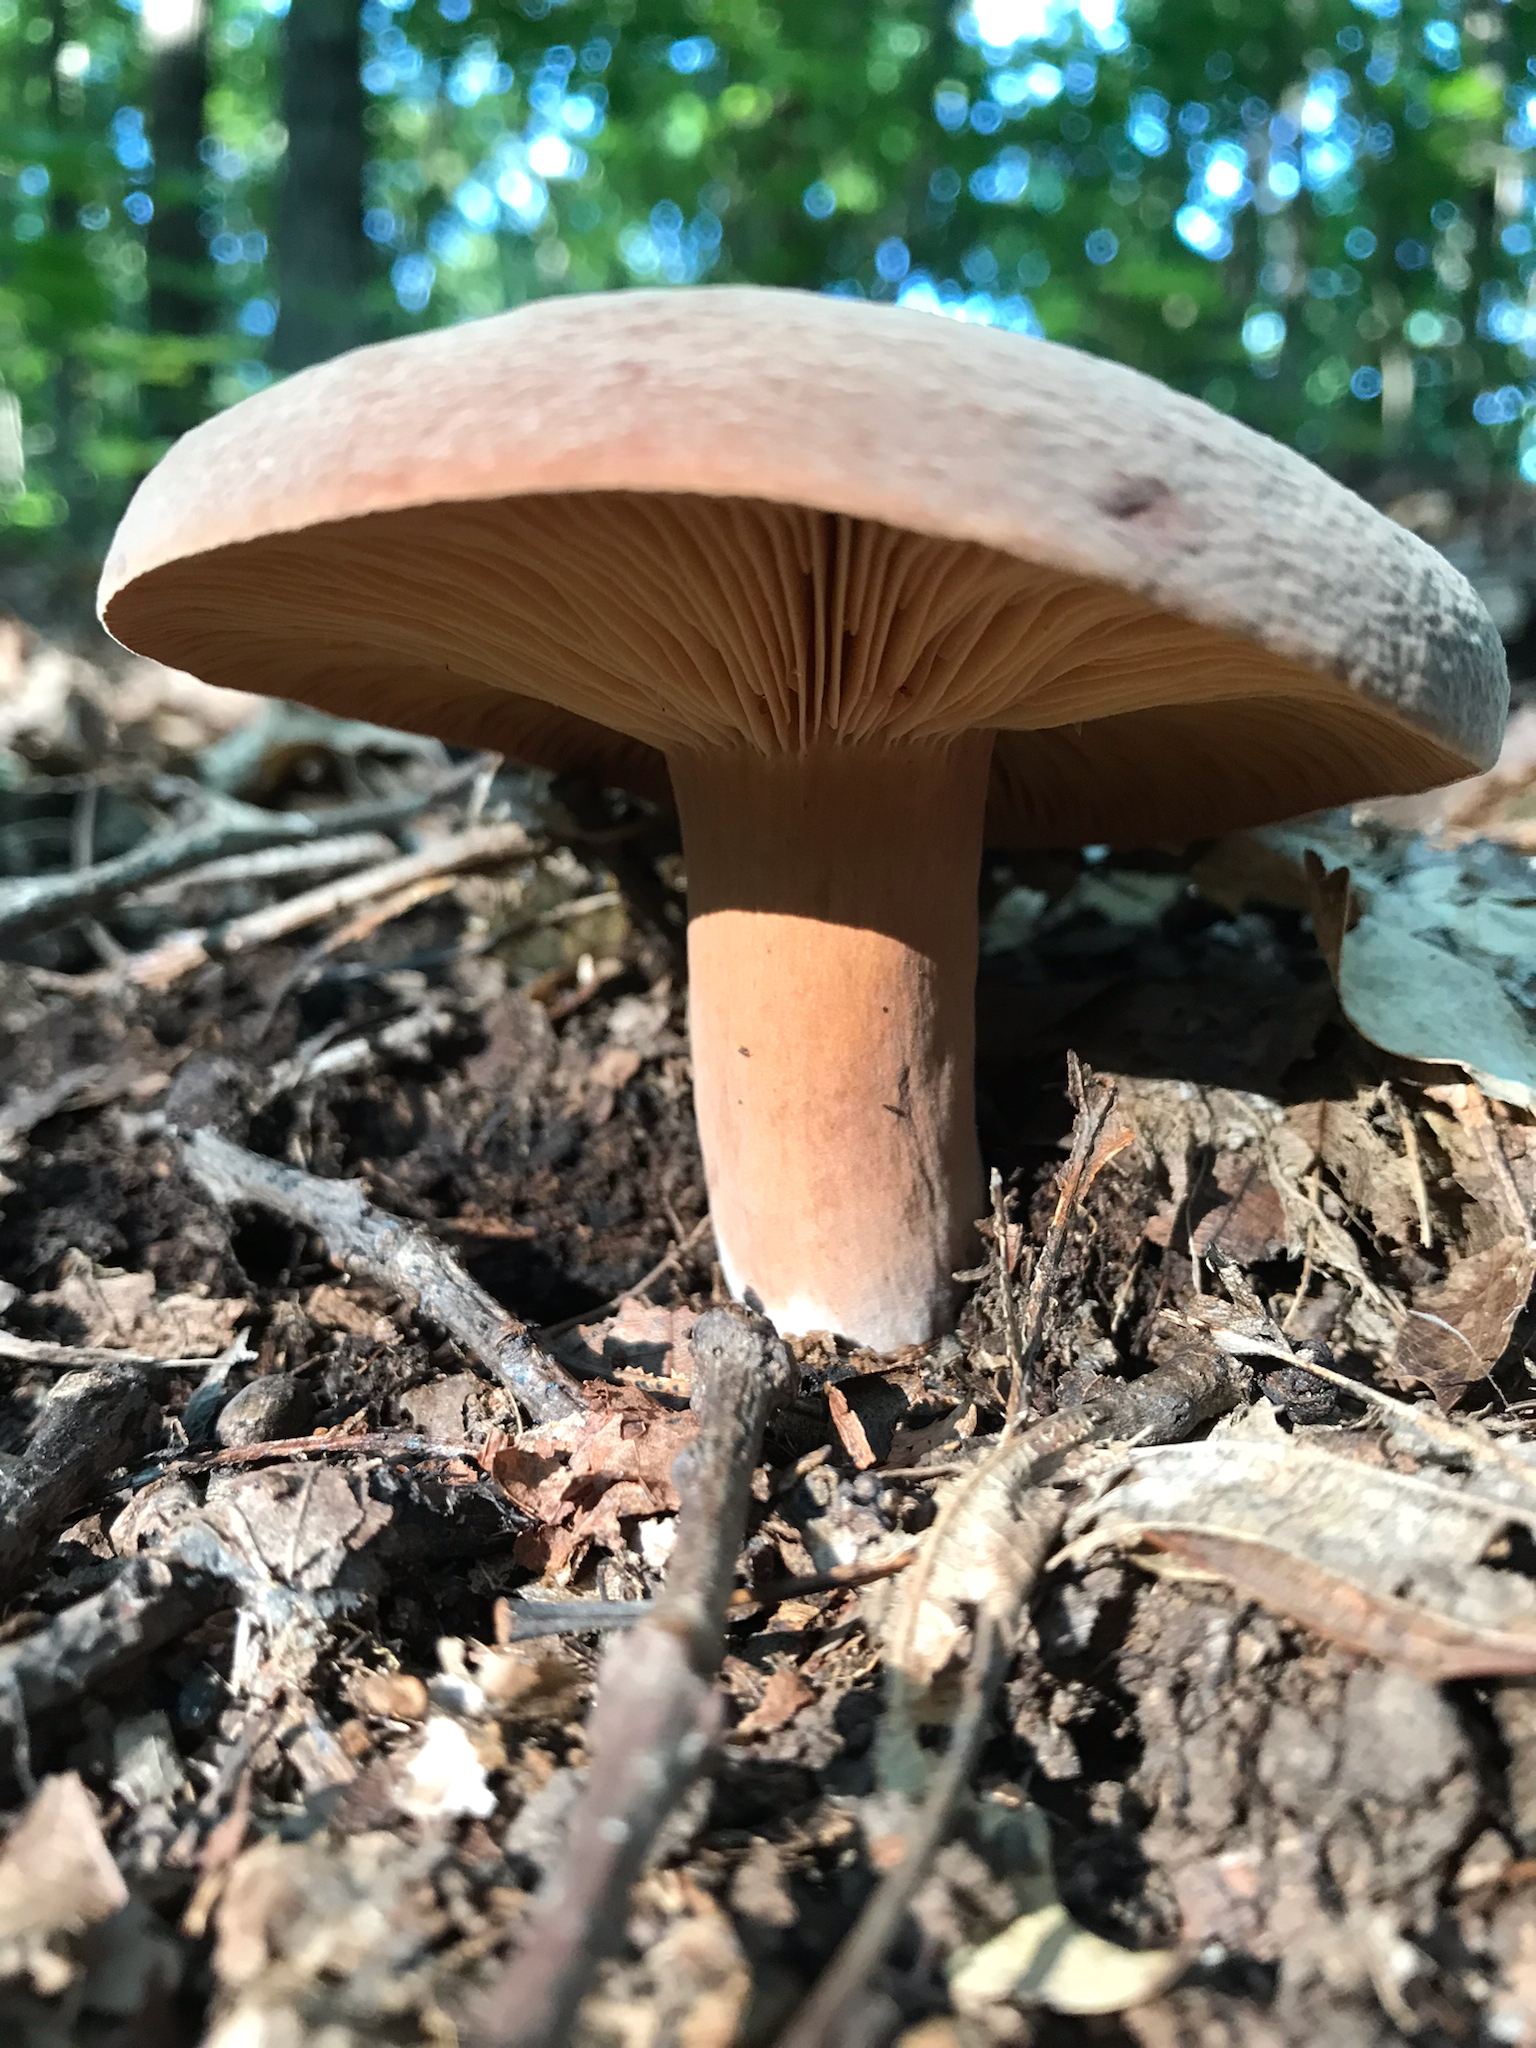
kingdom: Fungi
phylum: Basidiomycota
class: Agaricomycetes
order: Russulales
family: Russulaceae
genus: Lactarius
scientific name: Lactarius corrugis
